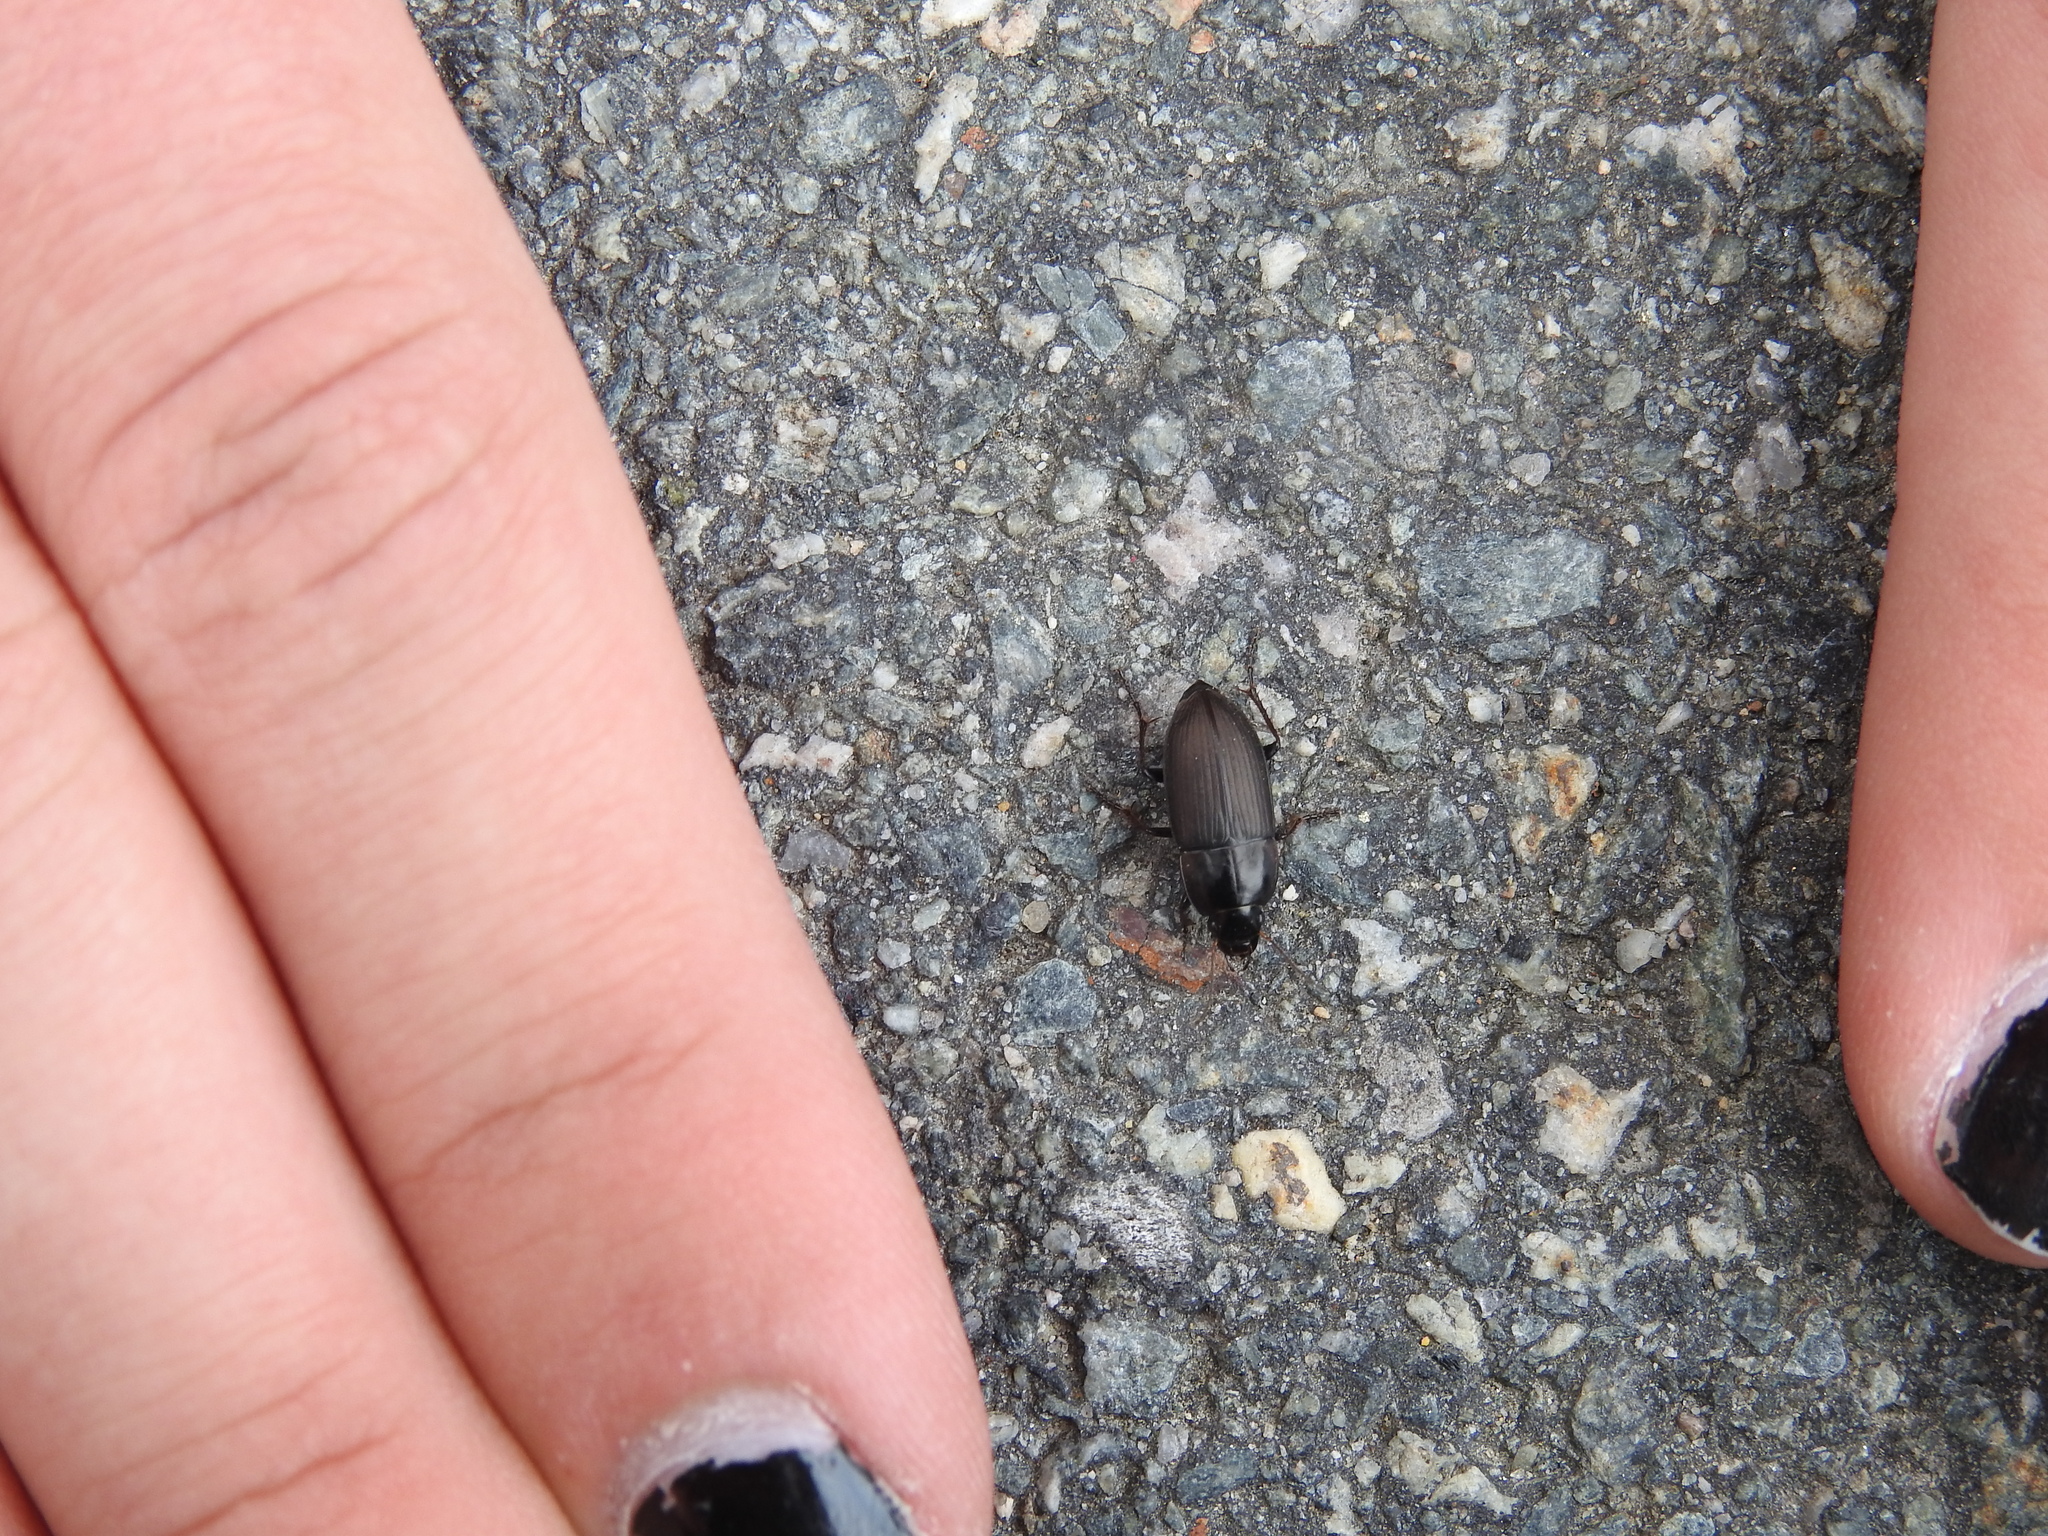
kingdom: Animalia
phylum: Arthropoda
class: Insecta
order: Coleoptera
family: Carabidae
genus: Anisodactylus
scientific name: Anisodactylus rusticus
